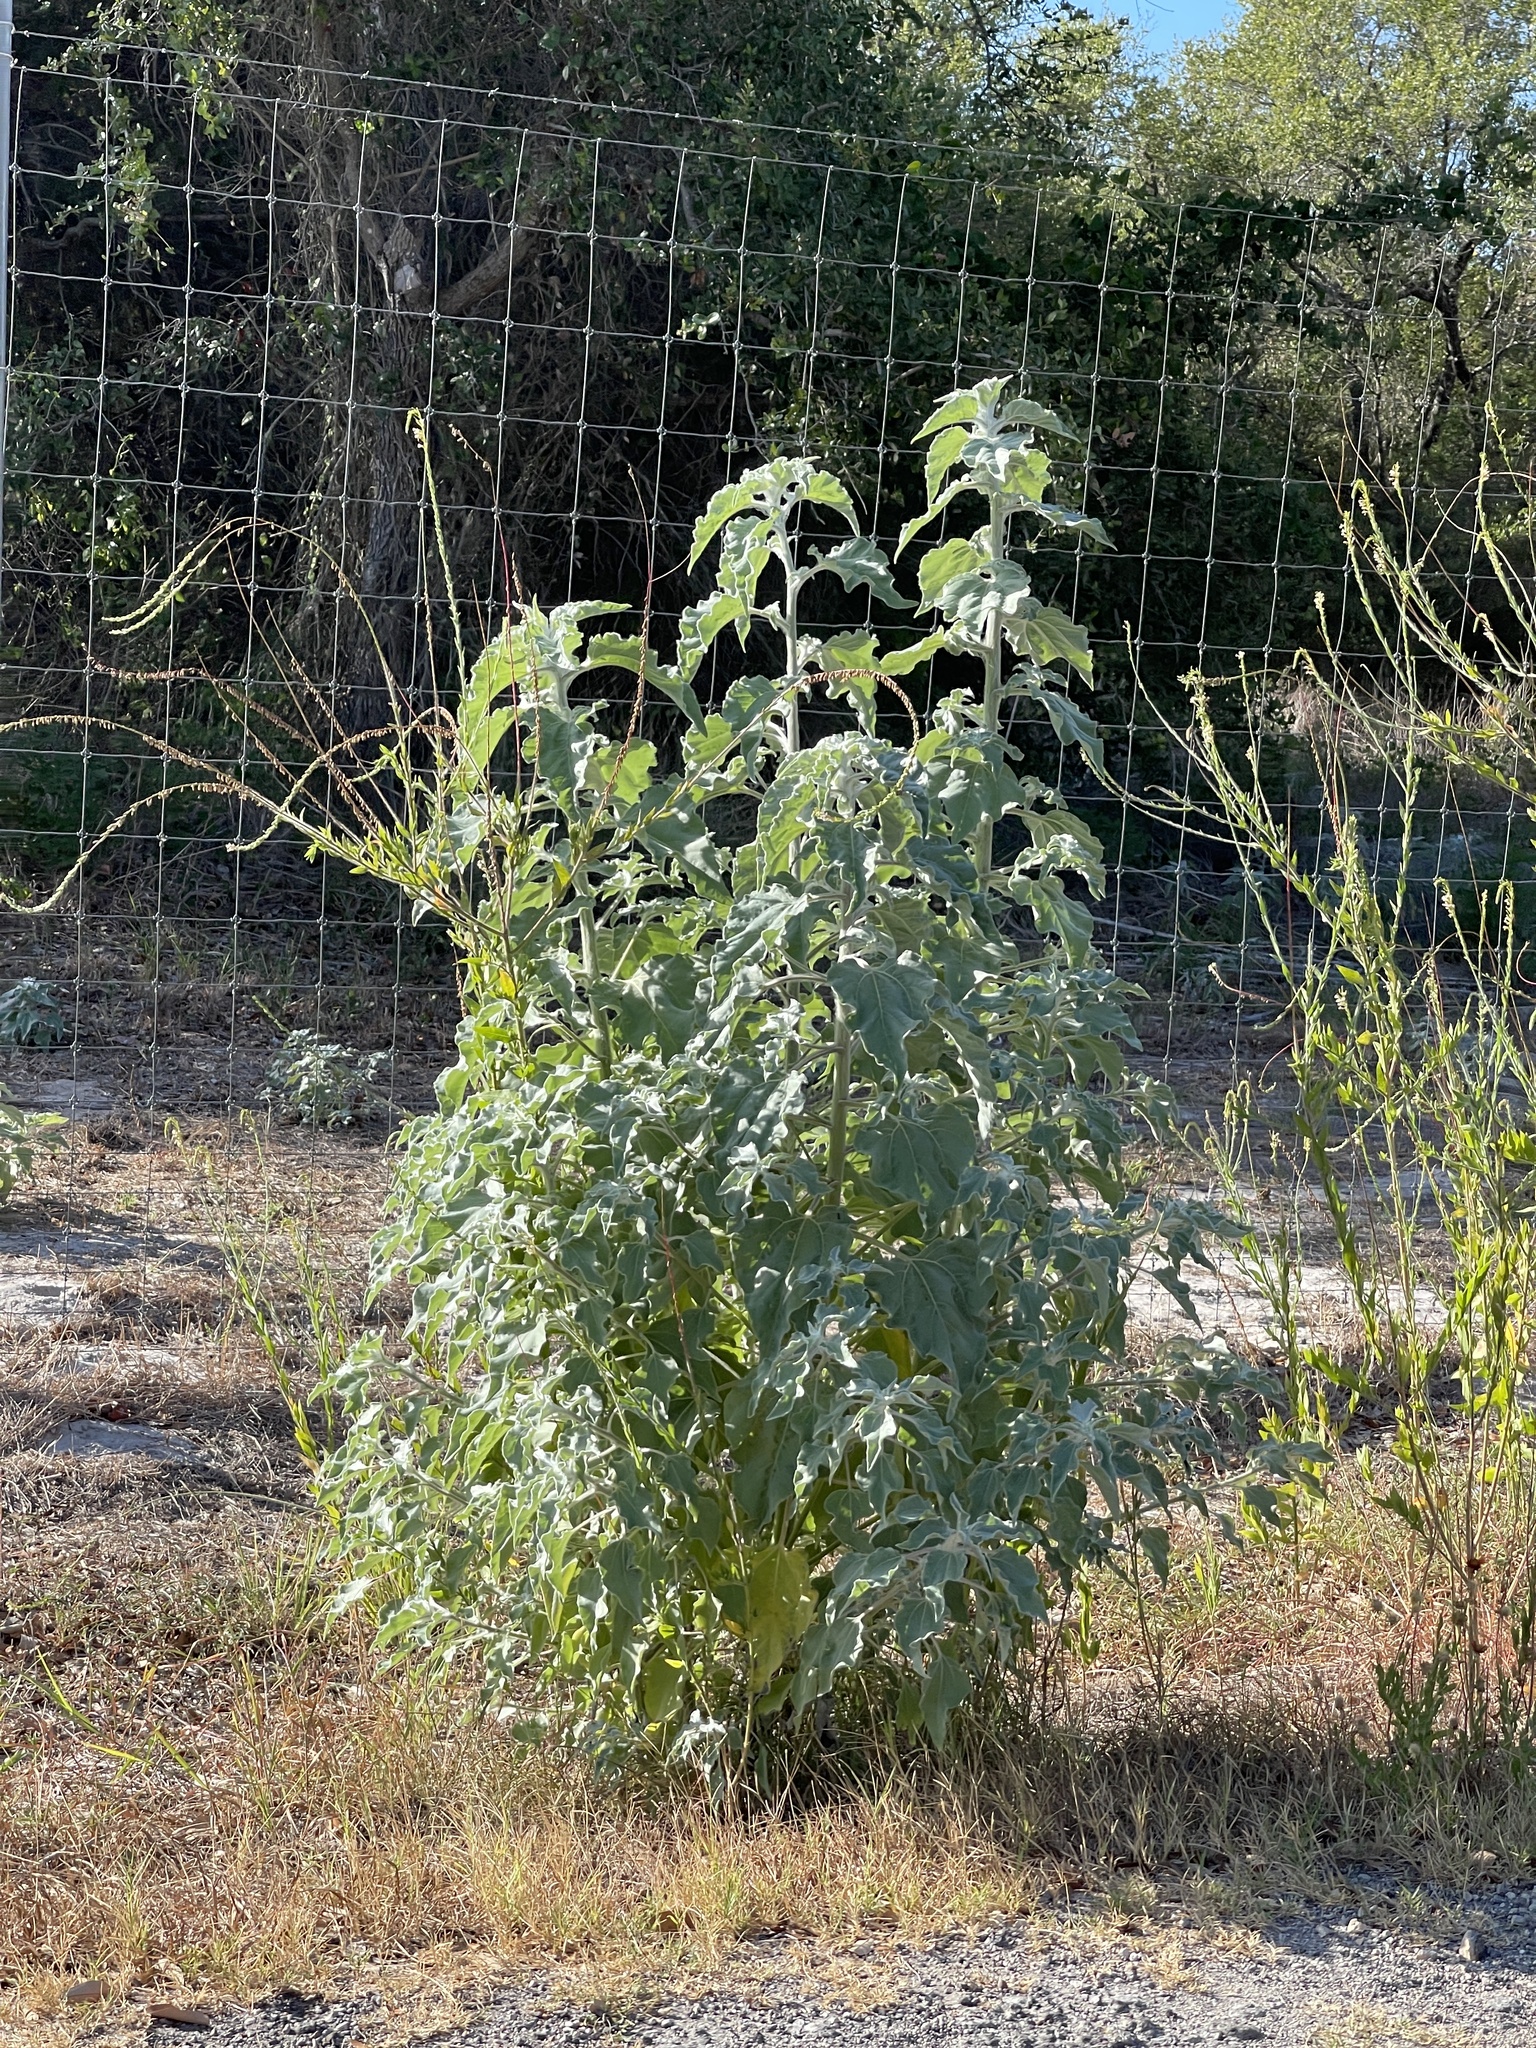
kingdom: Plantae
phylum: Tracheophyta
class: Magnoliopsida
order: Asterales
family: Asteraceae
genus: Helianthus
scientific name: Helianthus argophyllus
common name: Silverleaf sunflower
